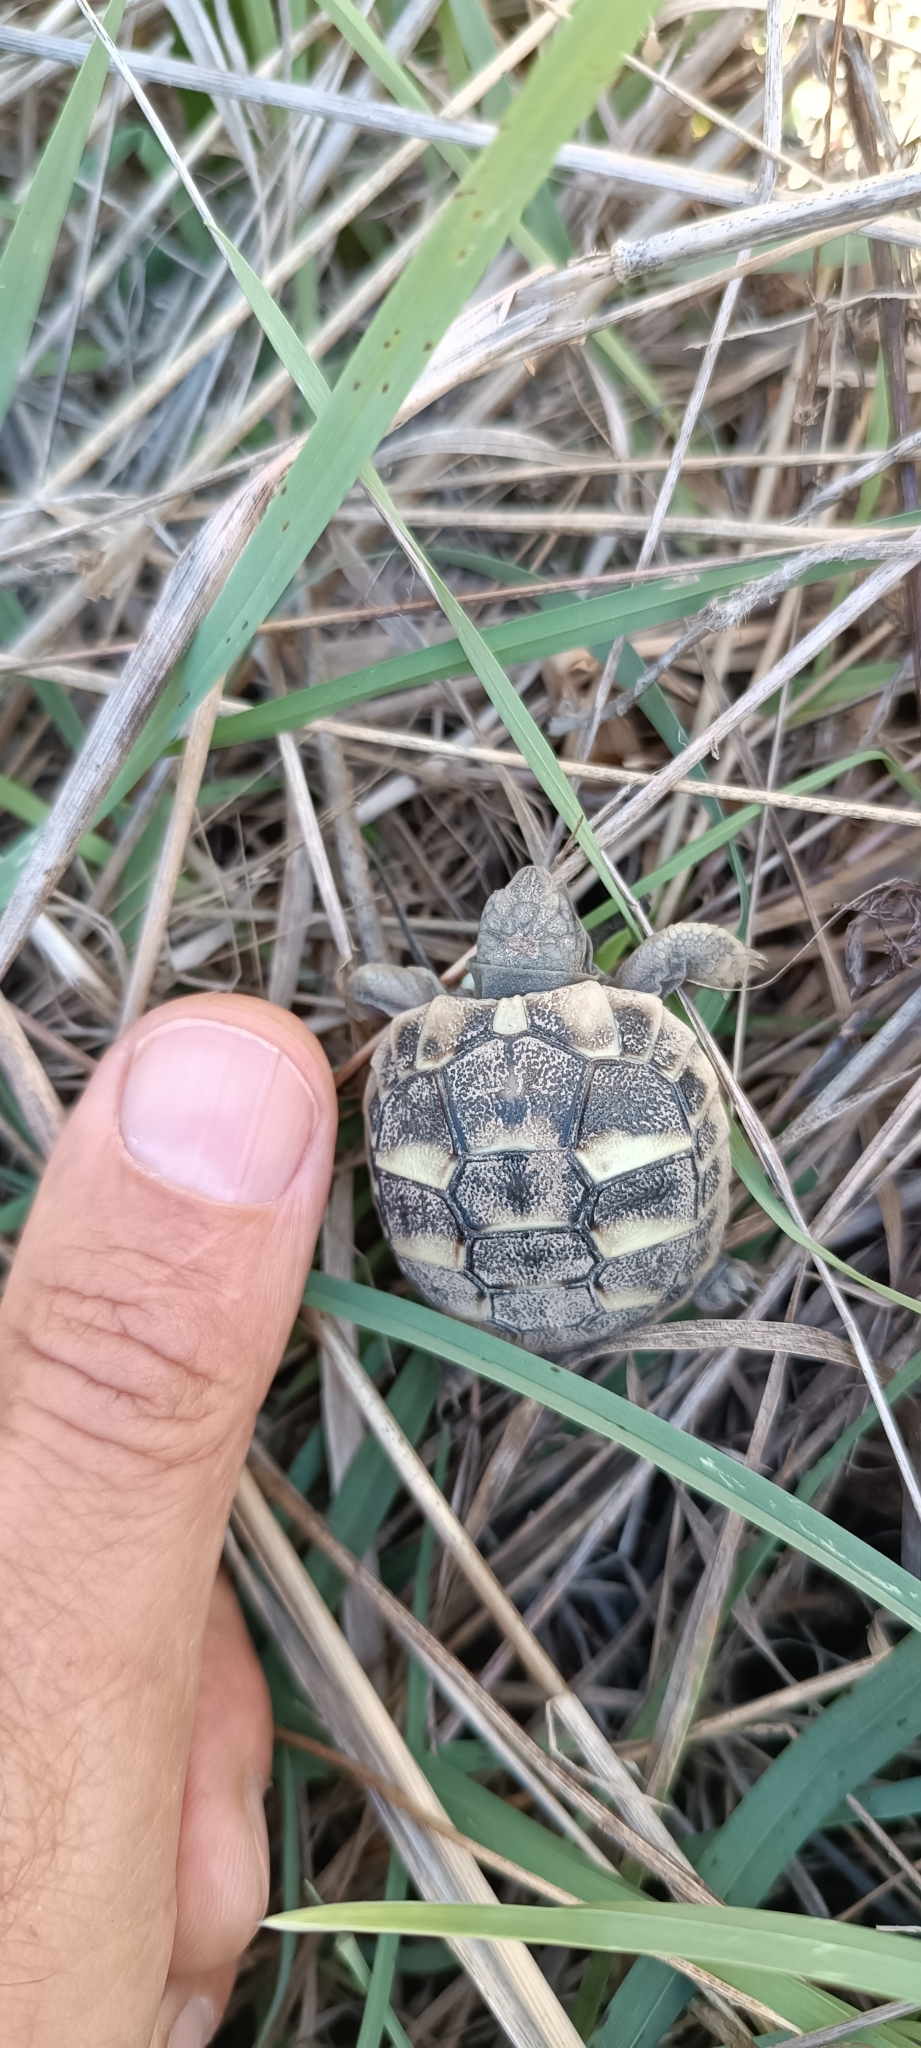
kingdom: Animalia
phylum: Chordata
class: Testudines
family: Testudinidae
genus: Testudo
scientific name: Testudo hermanni
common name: Hermann's tortoise
